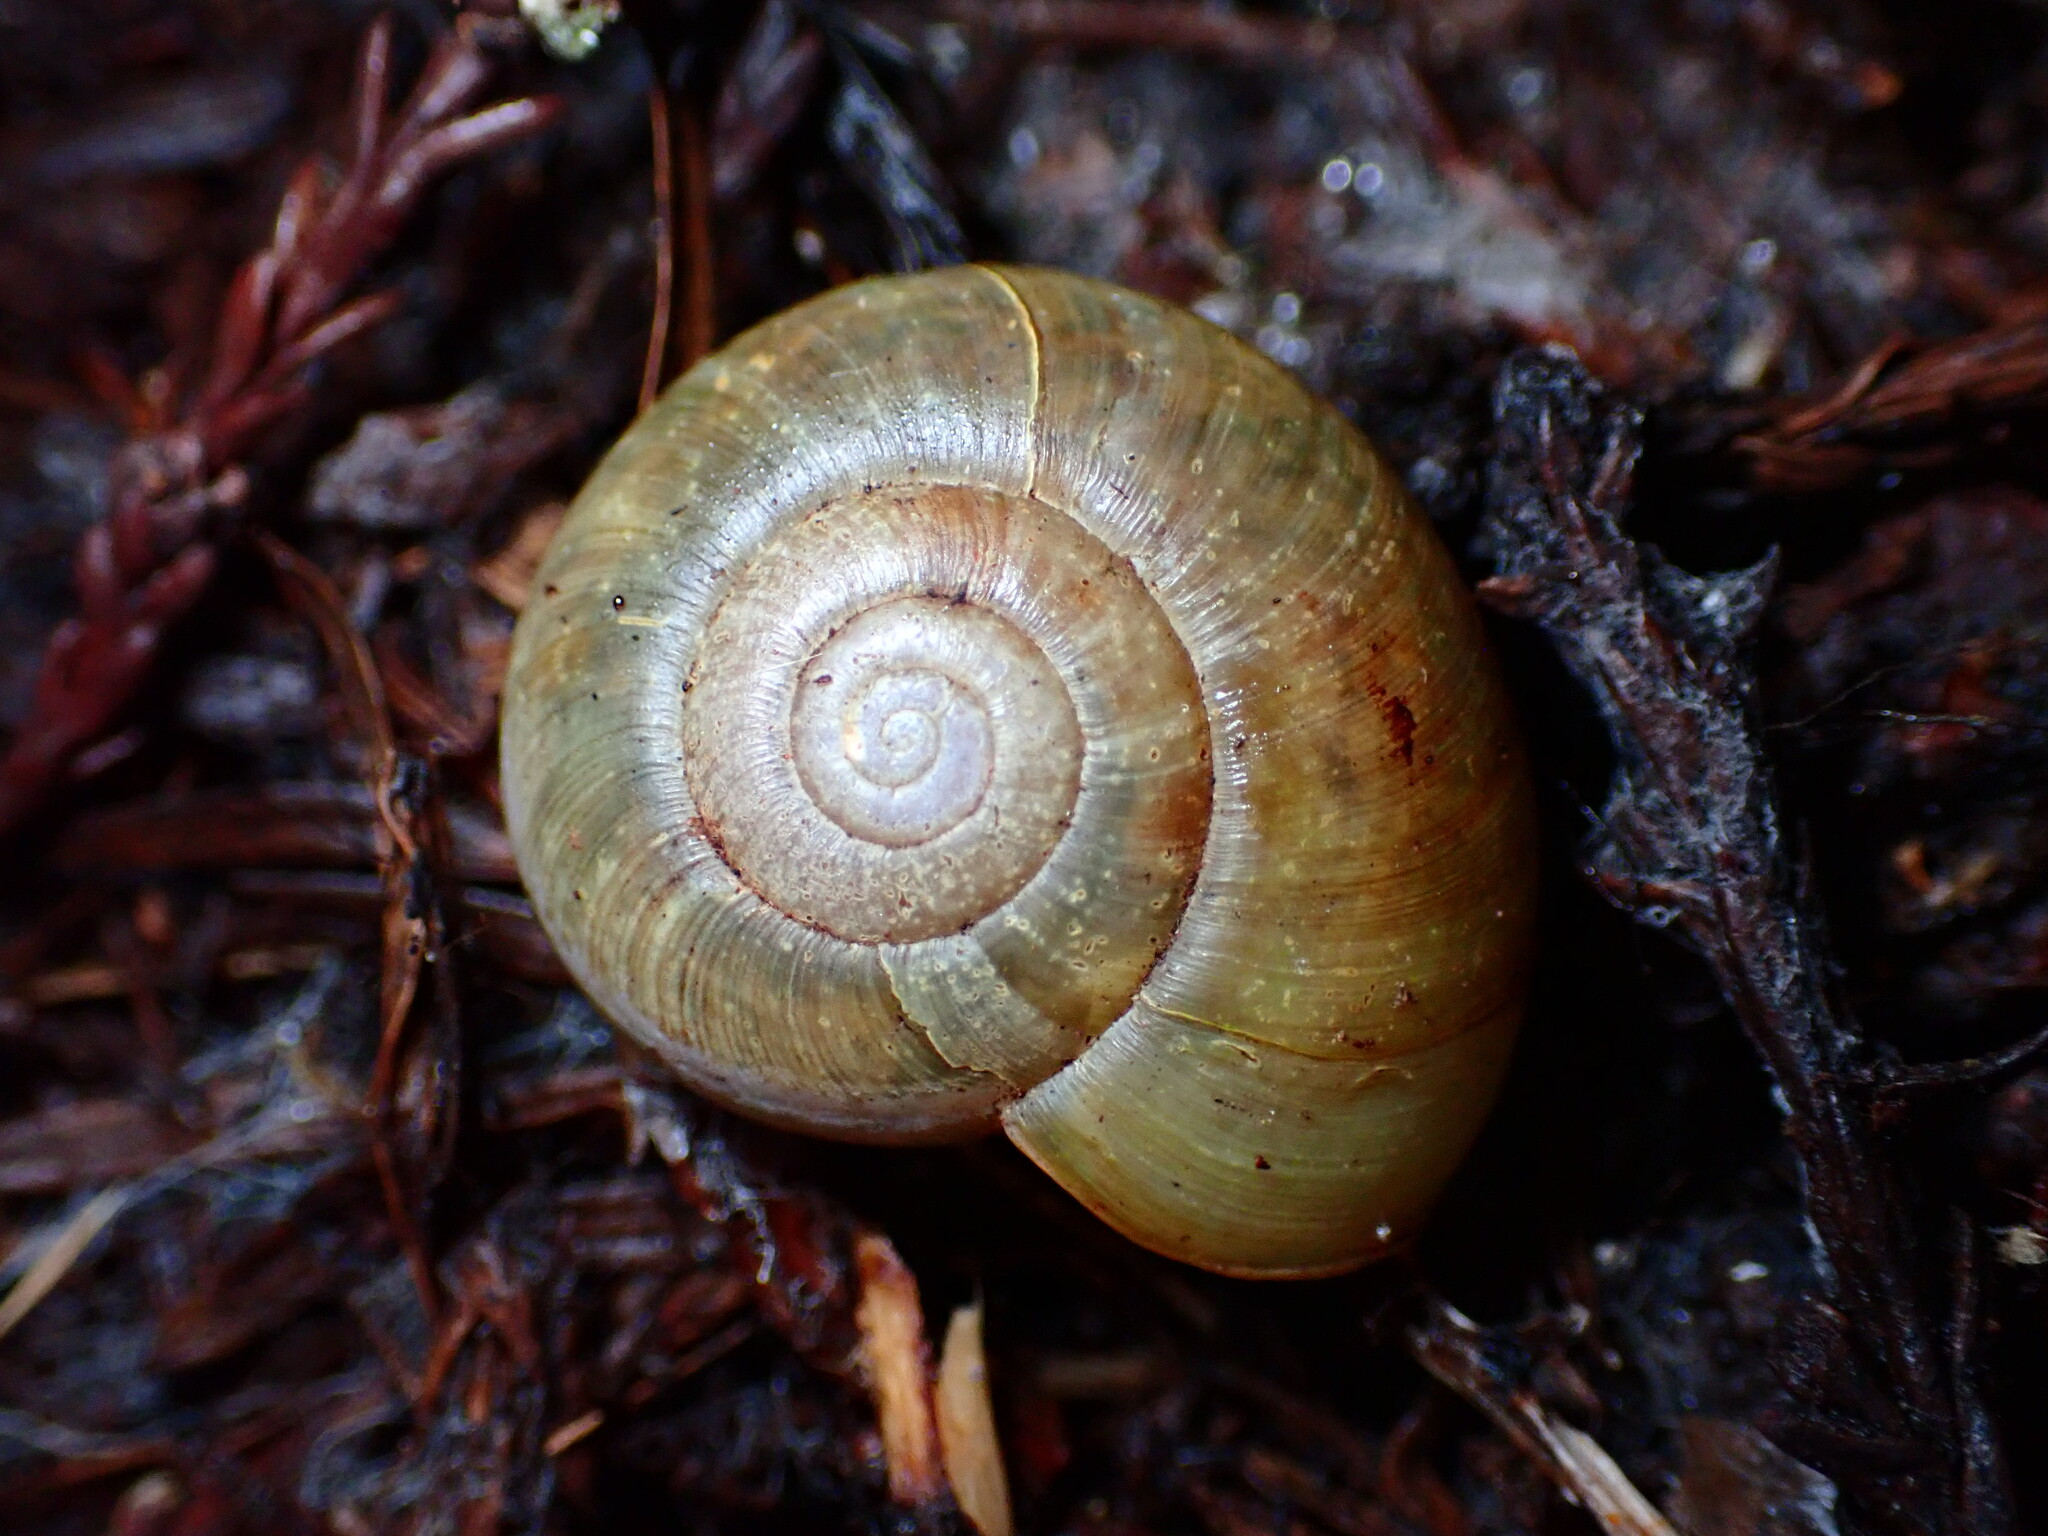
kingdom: Animalia
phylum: Mollusca
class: Gastropoda
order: Stylommatophora
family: Haplotrematidae
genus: Haplotrema
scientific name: Haplotrema minimum
